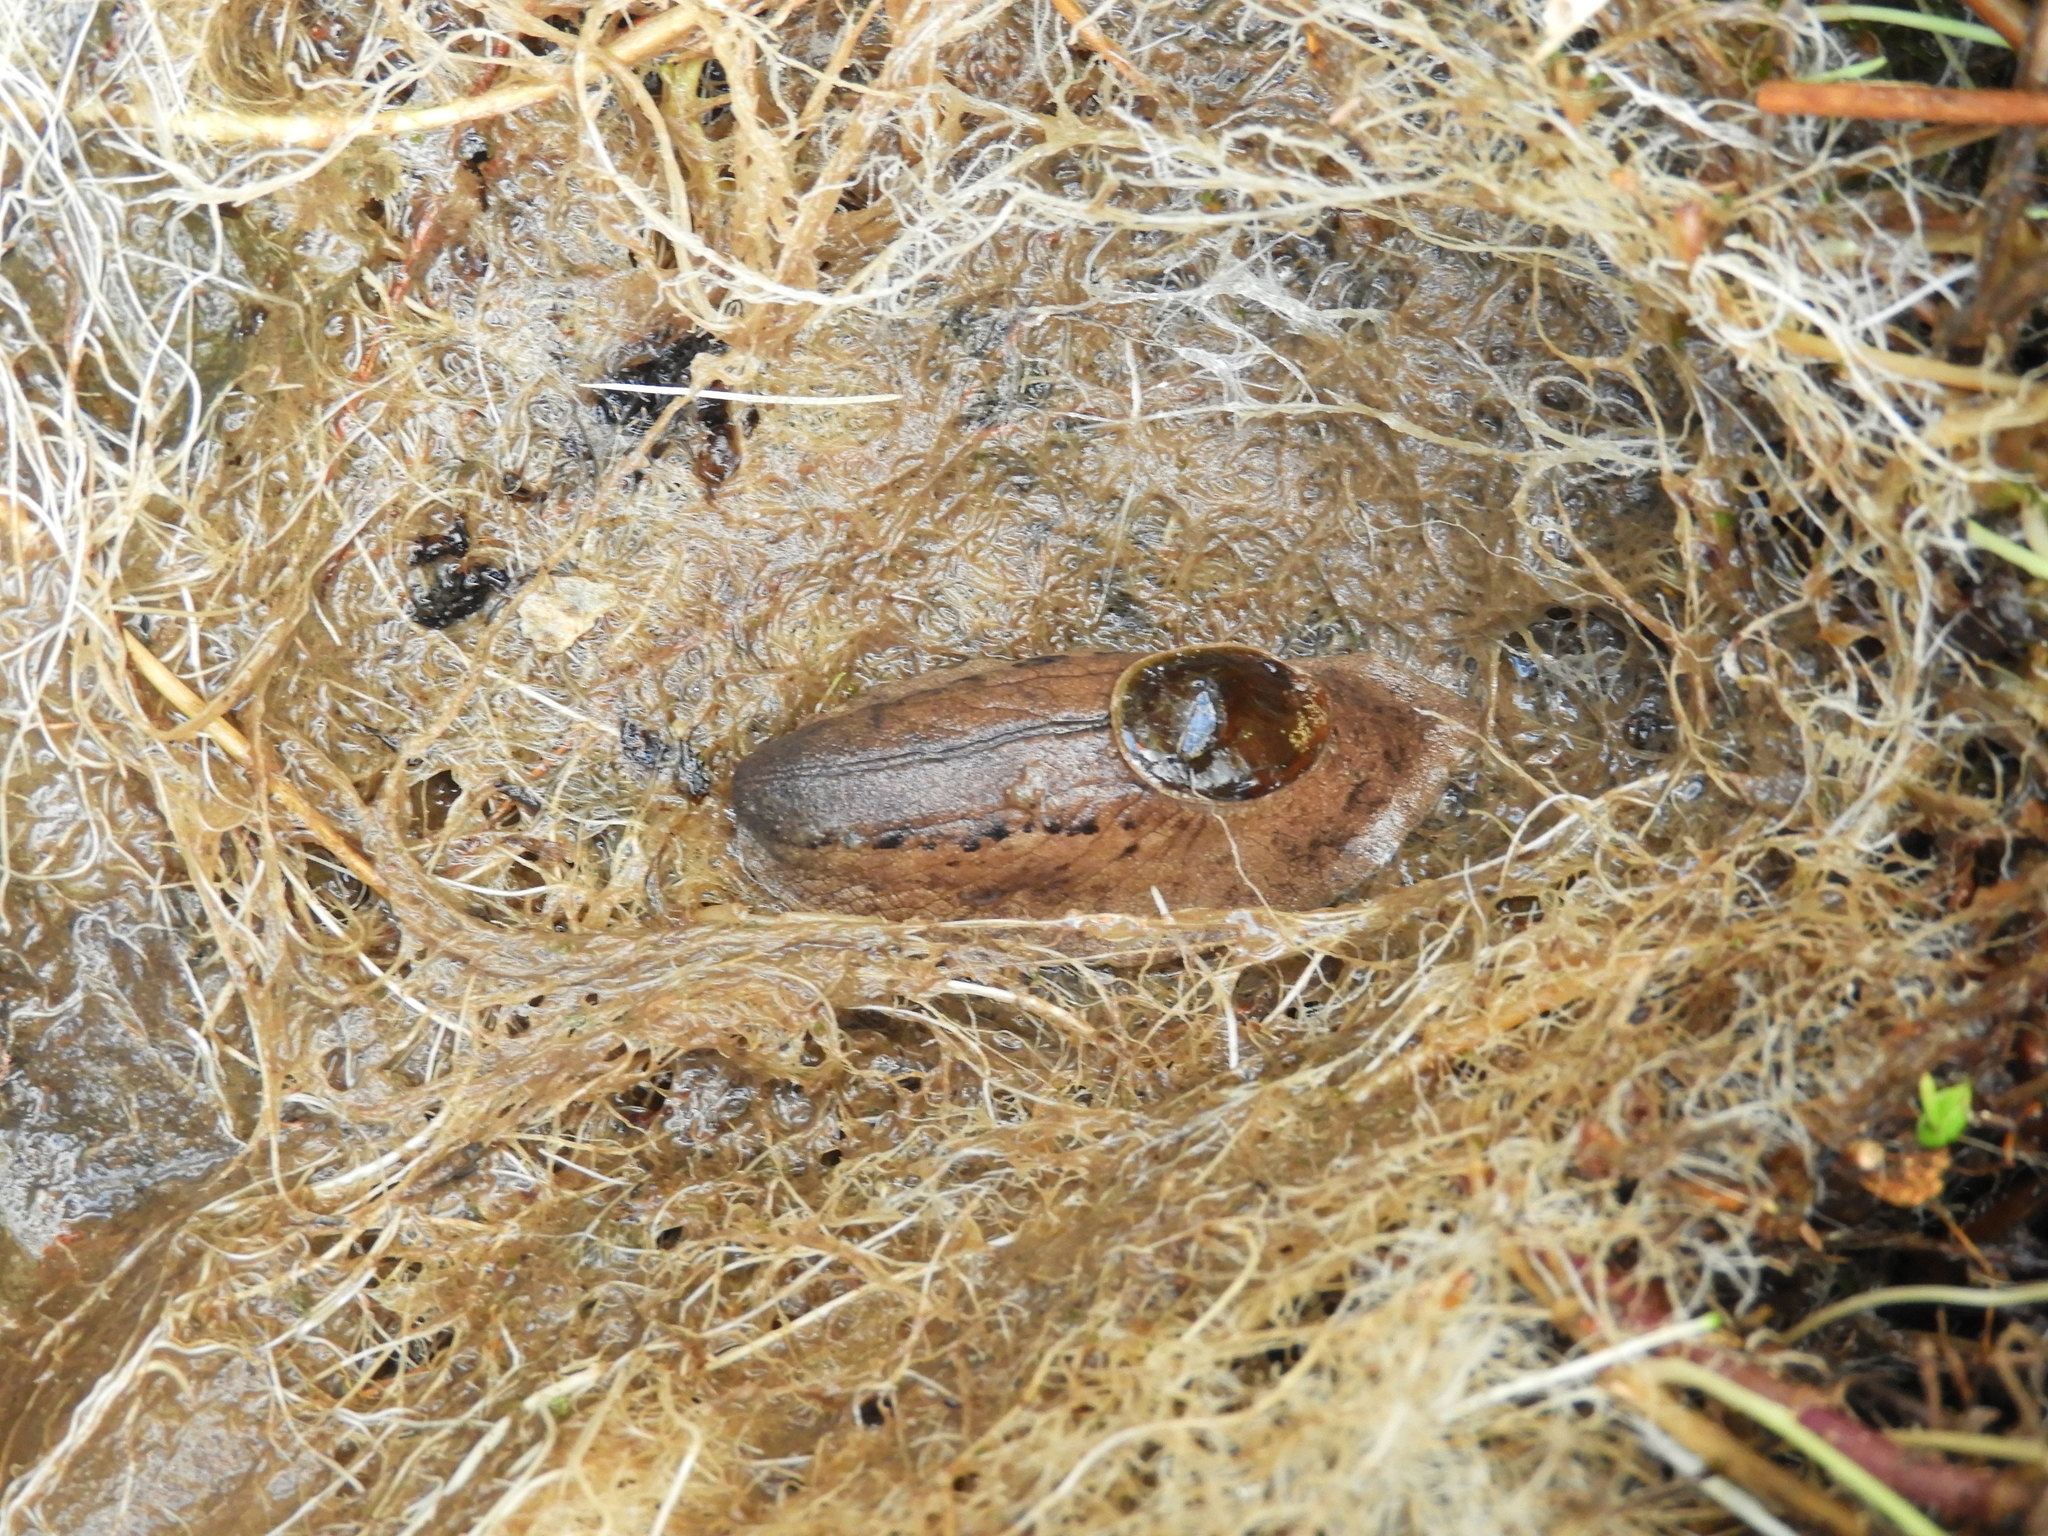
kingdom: Animalia
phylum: Mollusca
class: Gastropoda
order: Stylommatophora
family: Rhytididae
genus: Schizoglossa
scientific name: Schizoglossa gigantea
